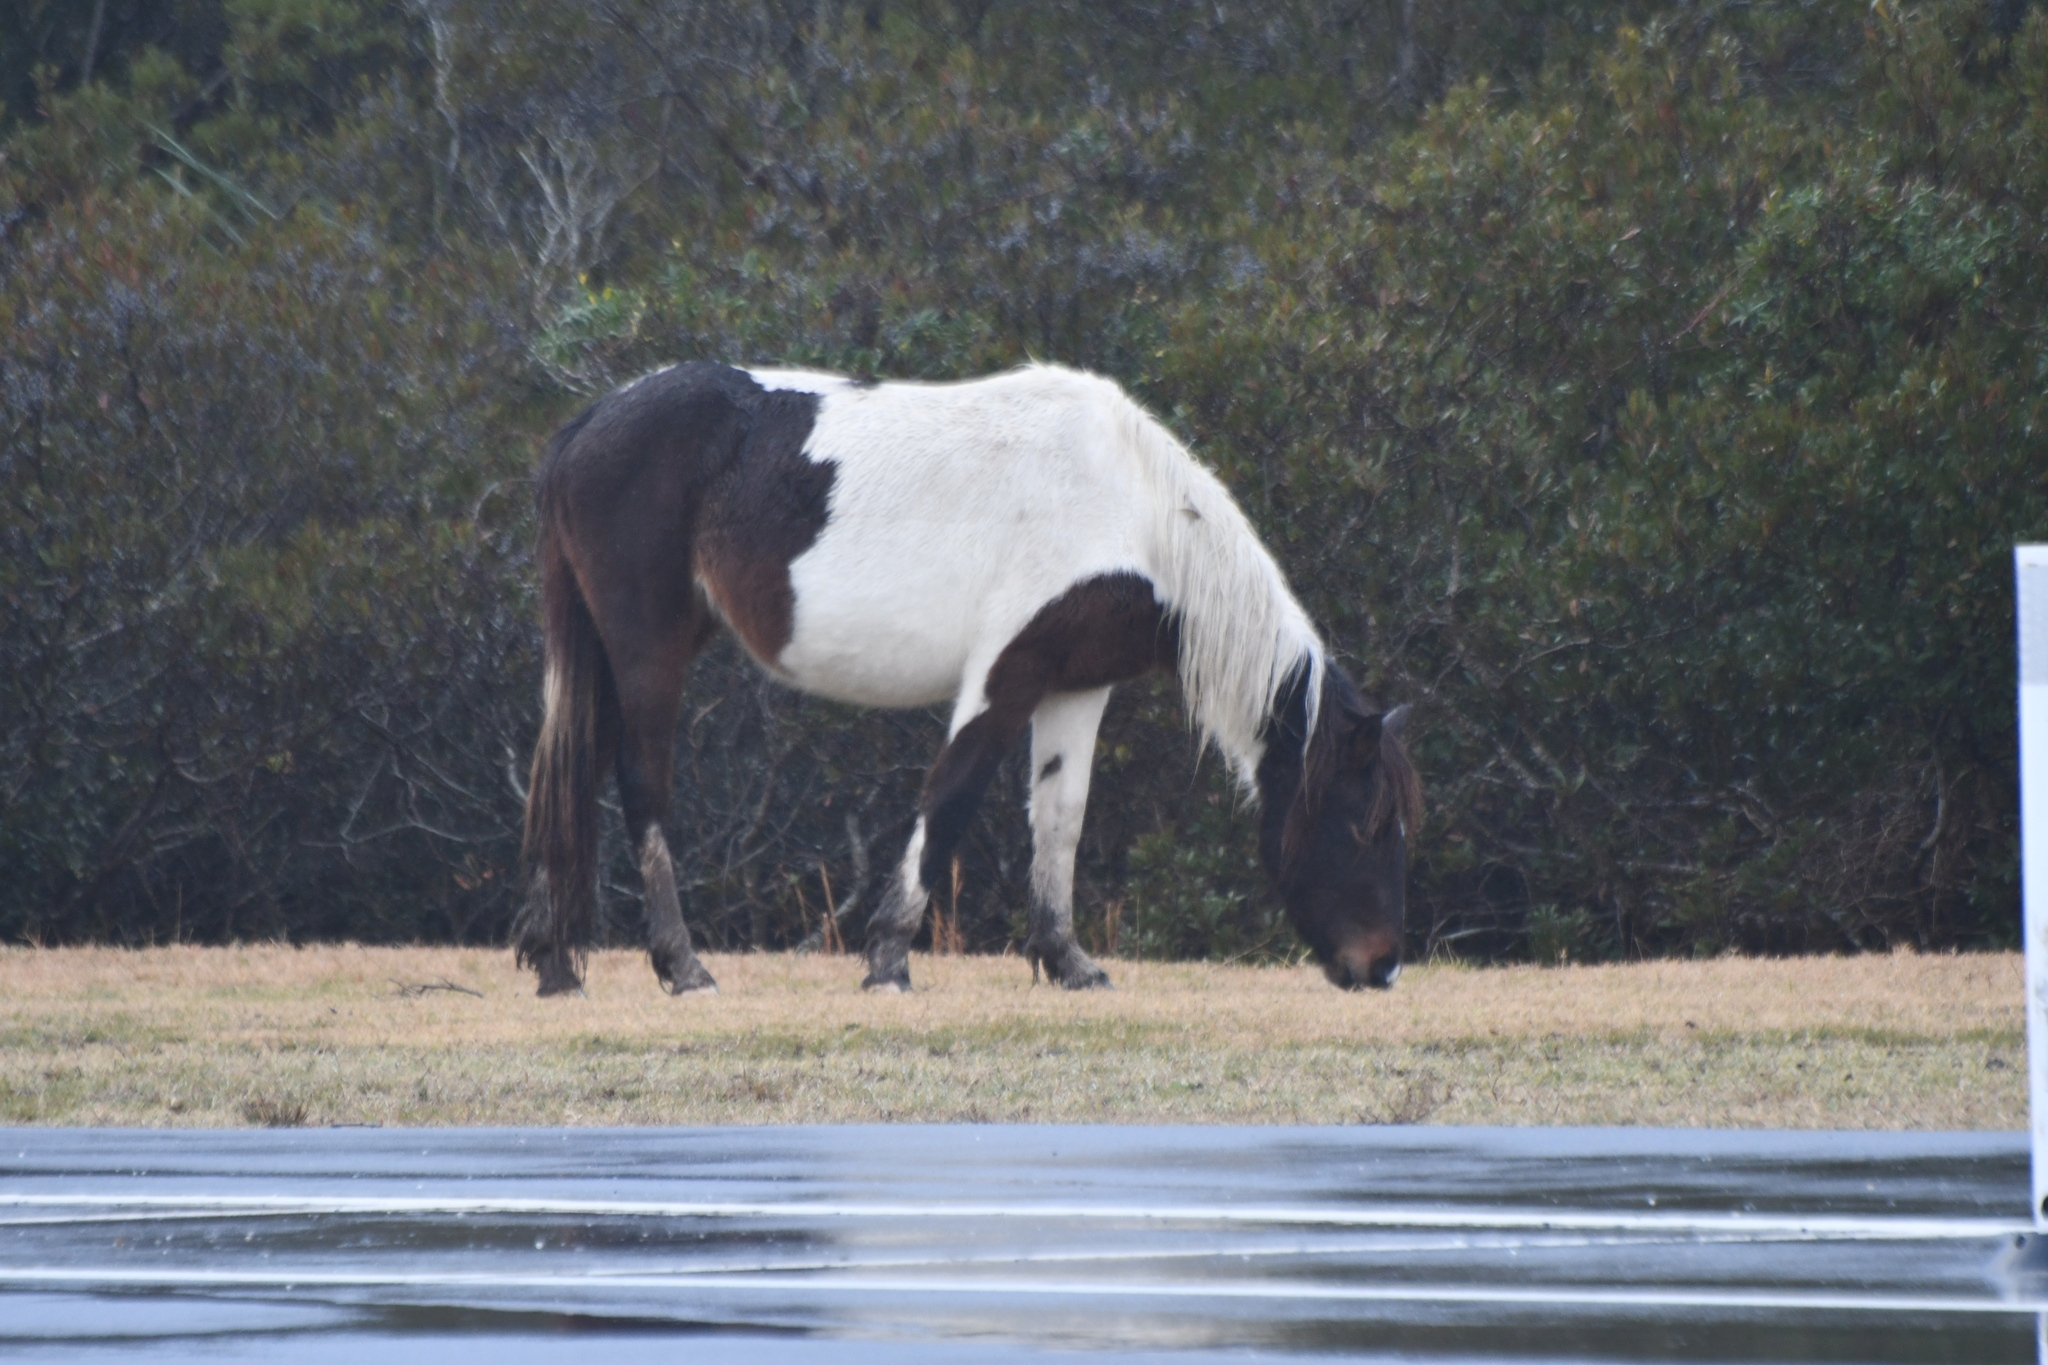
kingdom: Animalia
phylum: Chordata
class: Mammalia
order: Perissodactyla
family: Equidae
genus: Equus
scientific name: Equus caballus
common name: Horse
